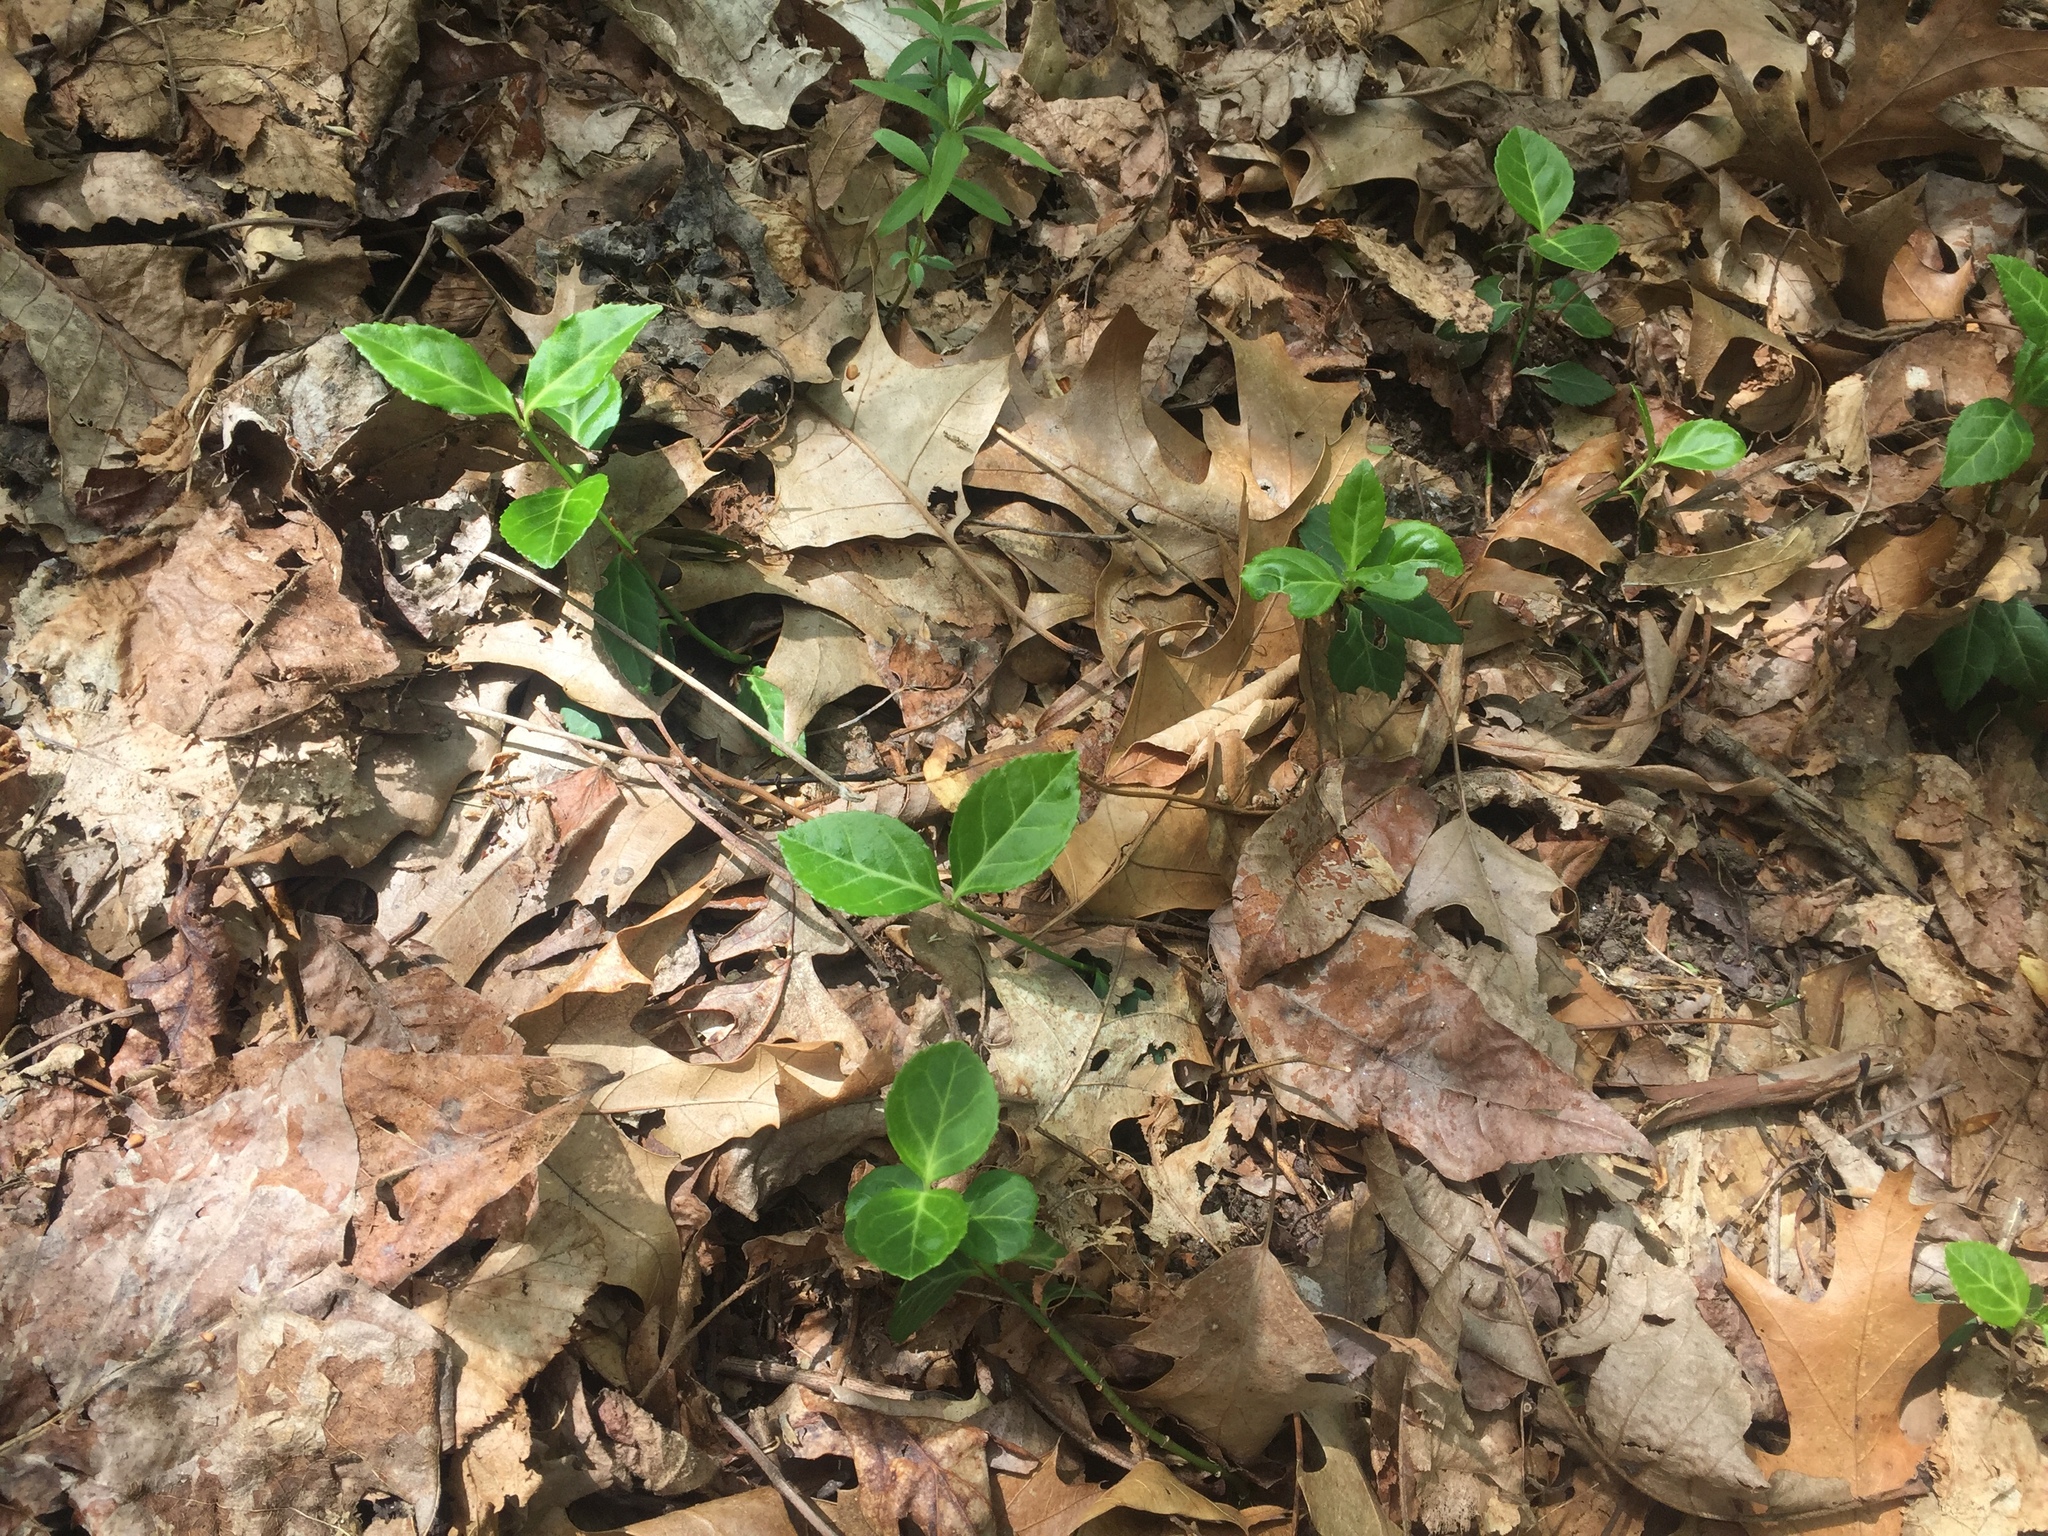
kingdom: Plantae
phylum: Tracheophyta
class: Magnoliopsida
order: Celastrales
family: Celastraceae
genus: Euonymus
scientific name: Euonymus fortunei
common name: Climbing euonymus
